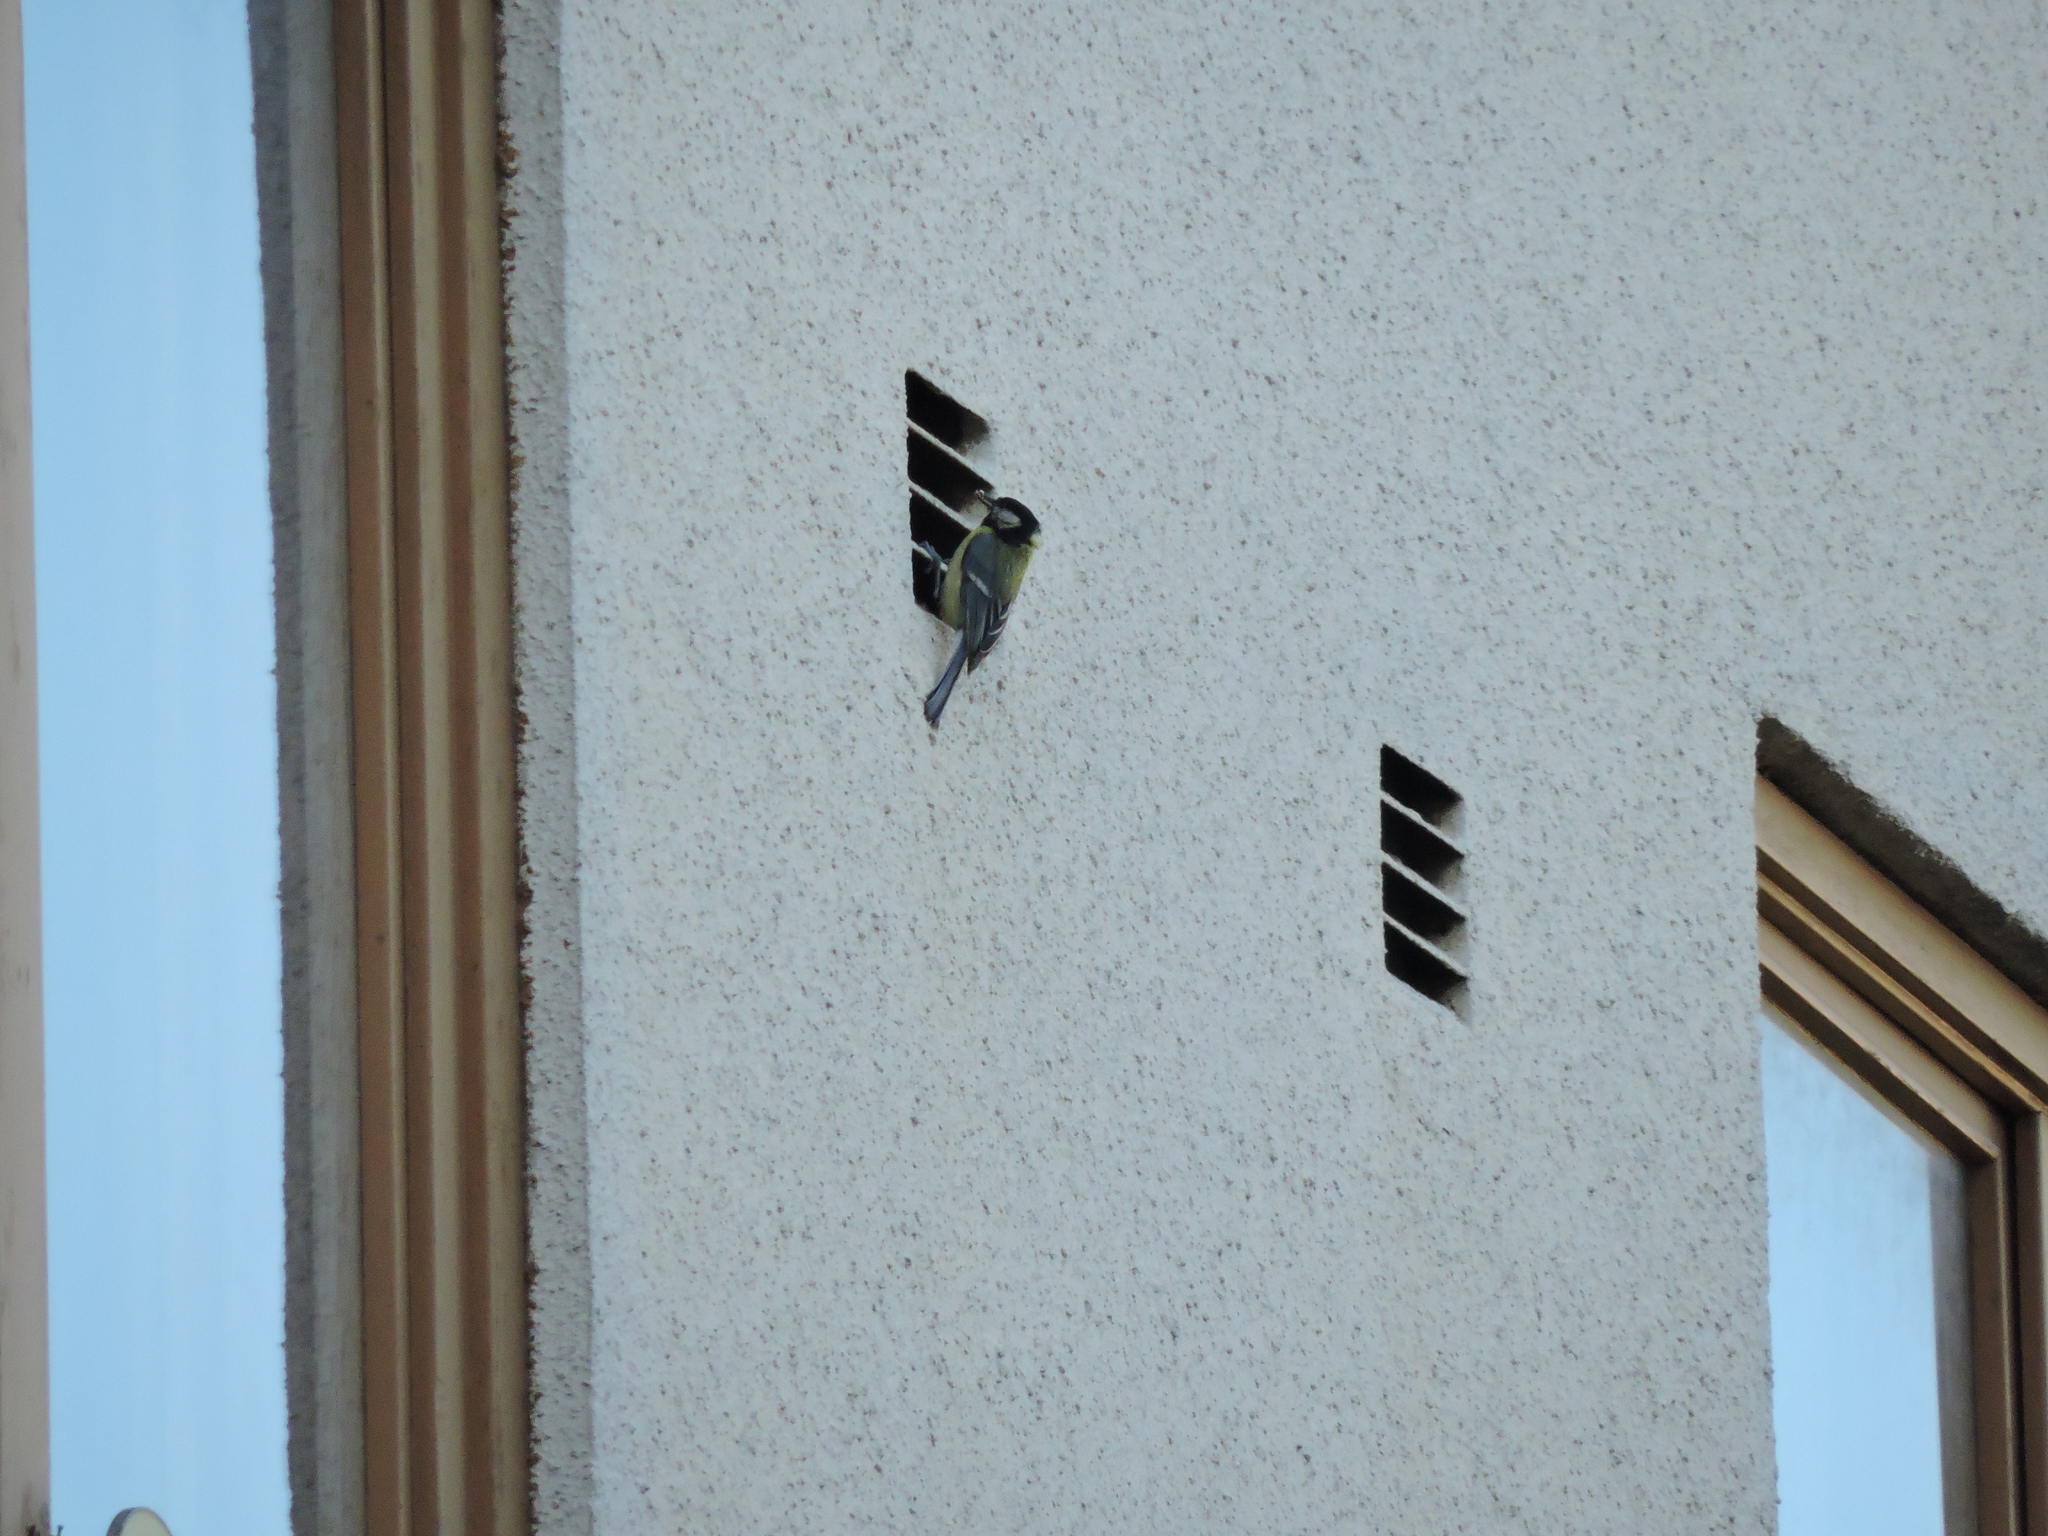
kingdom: Animalia
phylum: Chordata
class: Aves
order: Passeriformes
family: Paridae
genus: Parus
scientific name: Parus major
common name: Great tit
